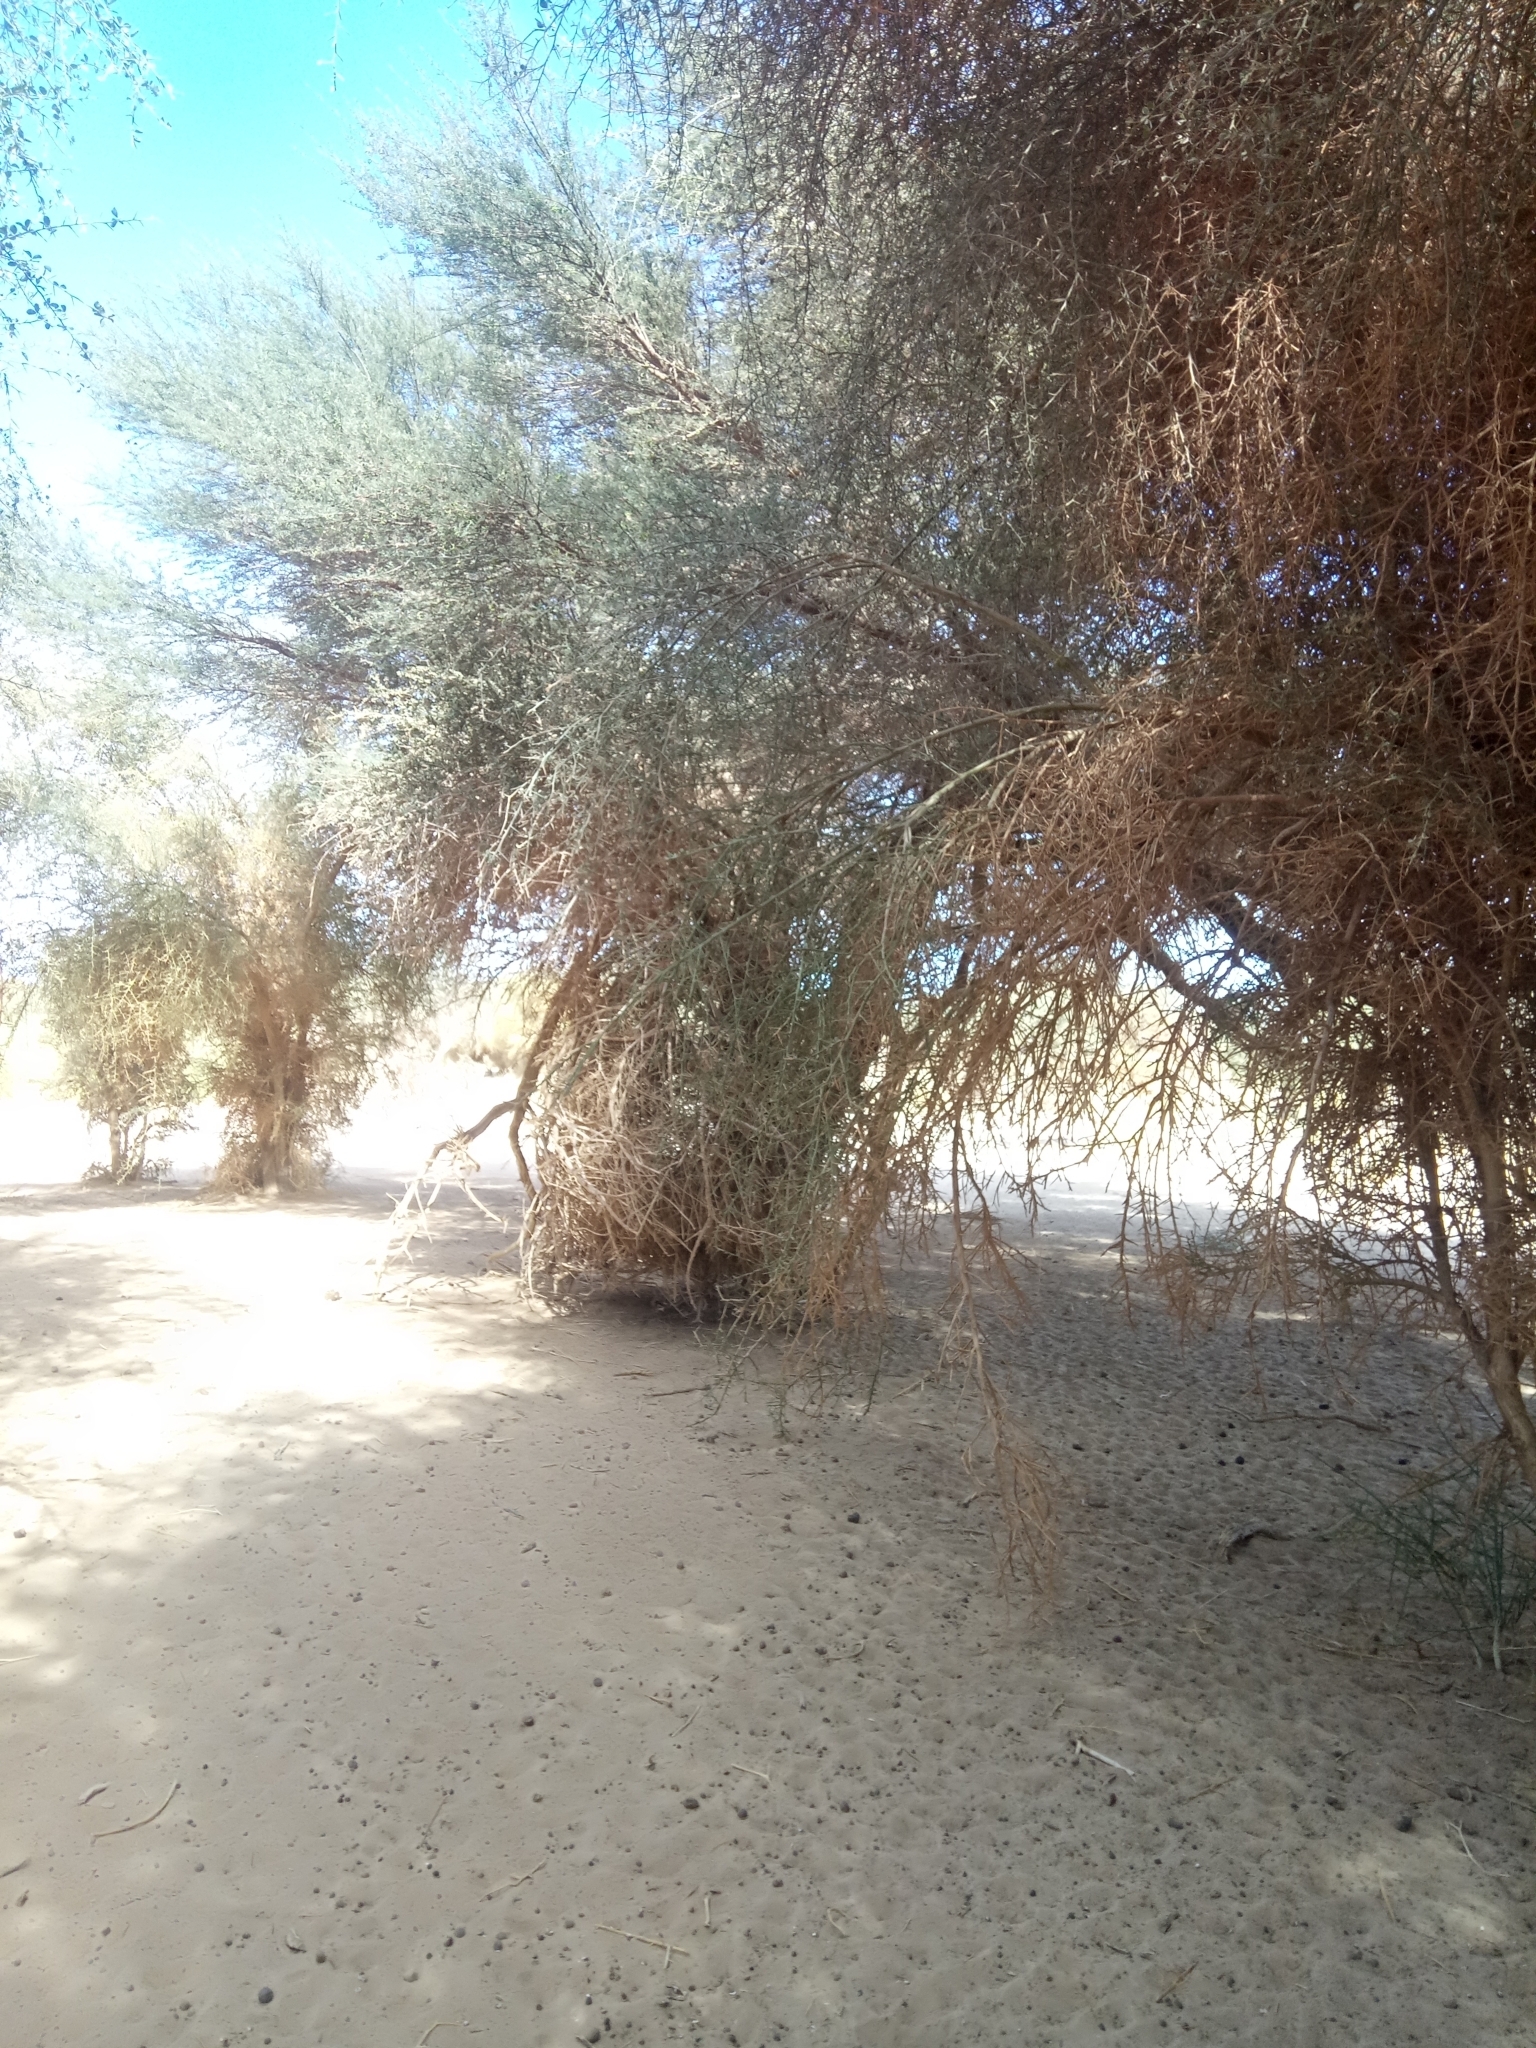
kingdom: Plantae
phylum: Tracheophyta
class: Magnoliopsida
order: Zygophyllales
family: Zygophyllaceae
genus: Balanites
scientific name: Balanites aegyptiaca
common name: Balanites
